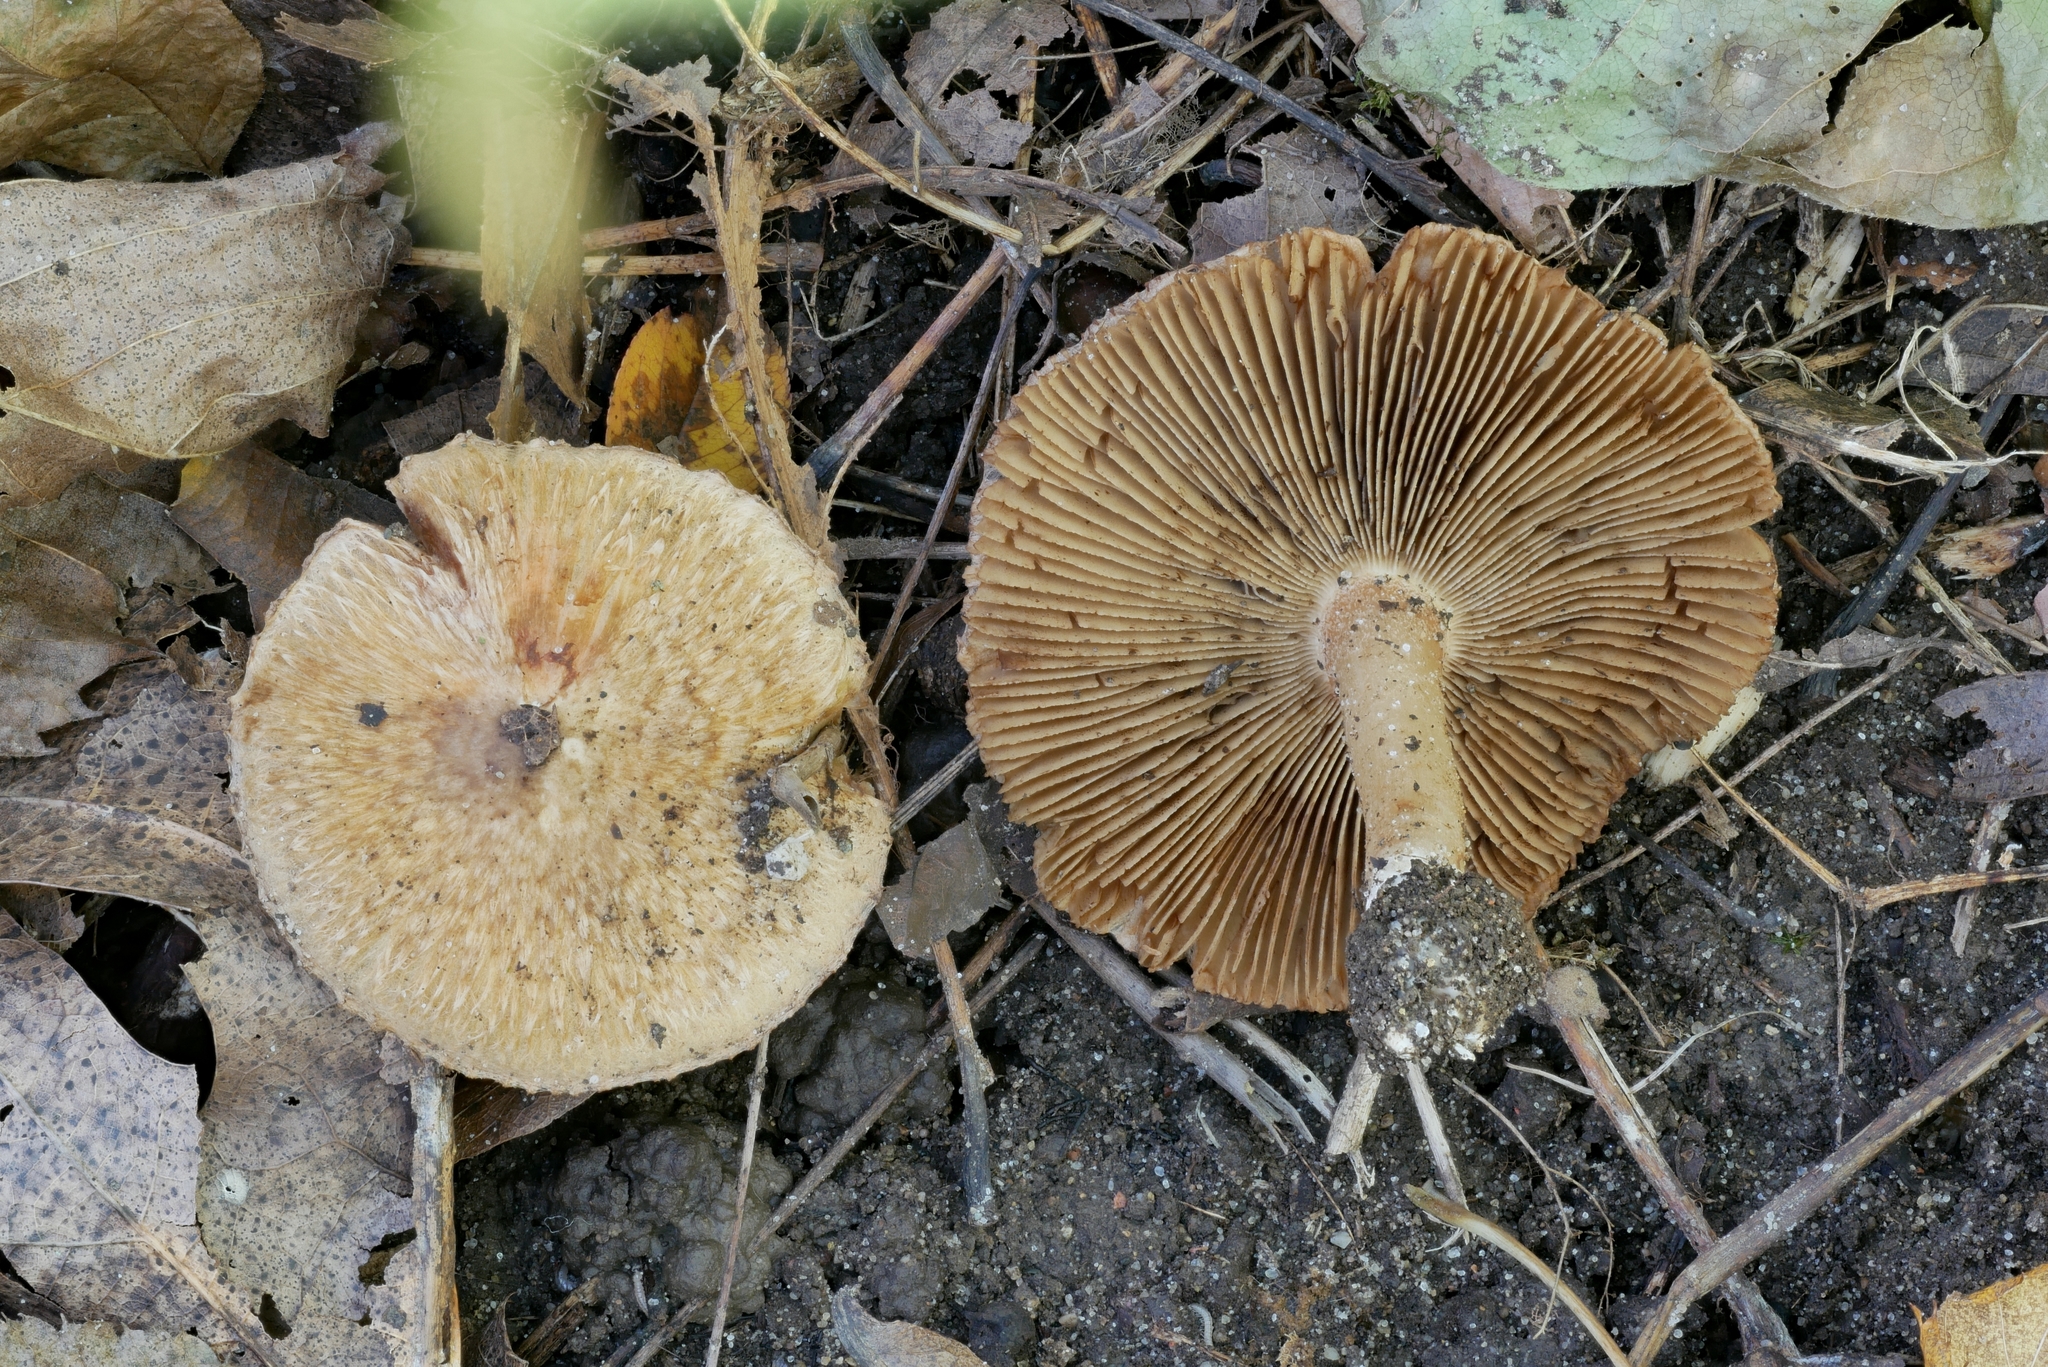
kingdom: Fungi
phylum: Basidiomycota
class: Agaricomycetes
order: Agaricales
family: Inocybaceae
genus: Inocybe
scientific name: Inocybe dulciolens
